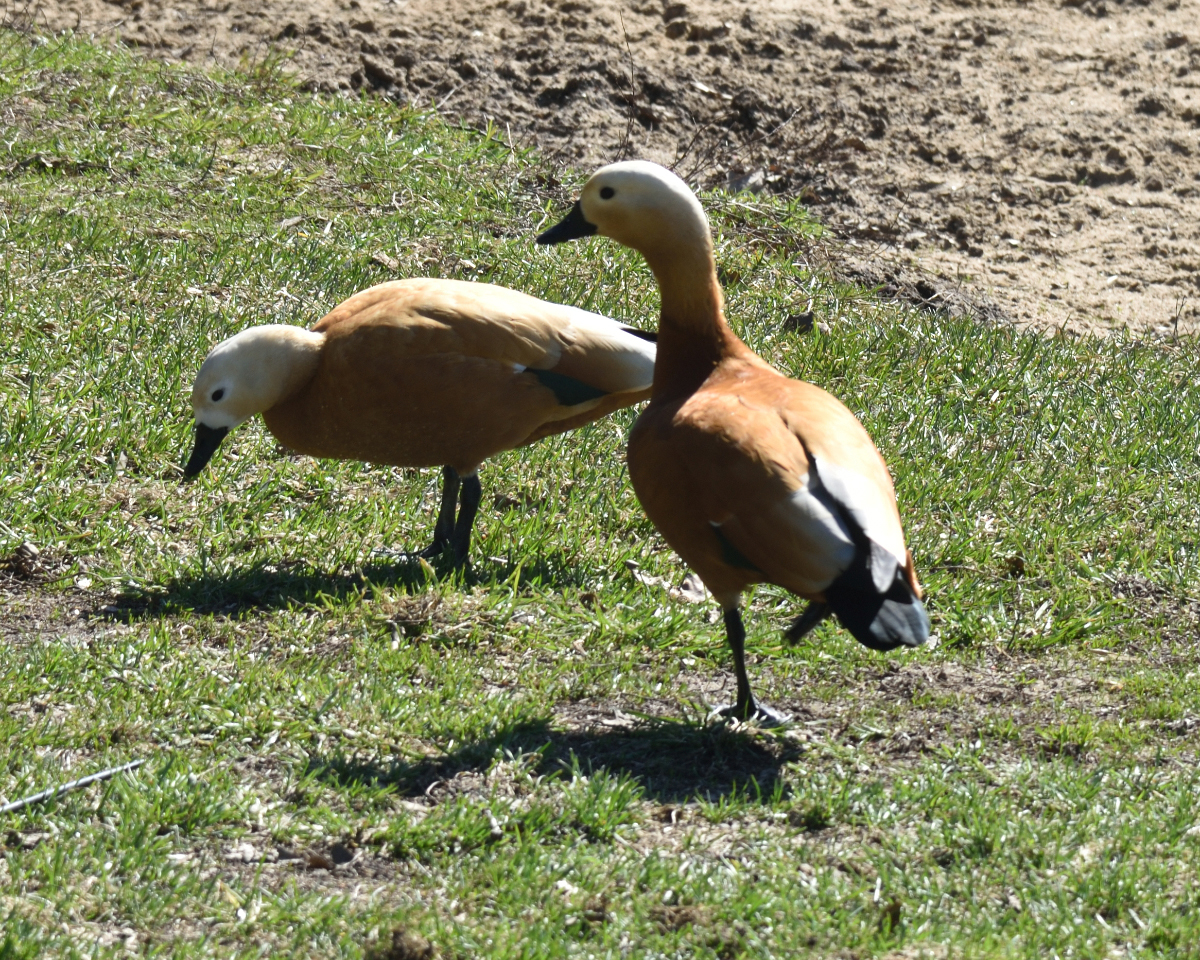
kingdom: Animalia
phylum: Chordata
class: Aves
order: Anseriformes
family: Anatidae
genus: Tadorna
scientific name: Tadorna ferruginea
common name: Ruddy shelduck
